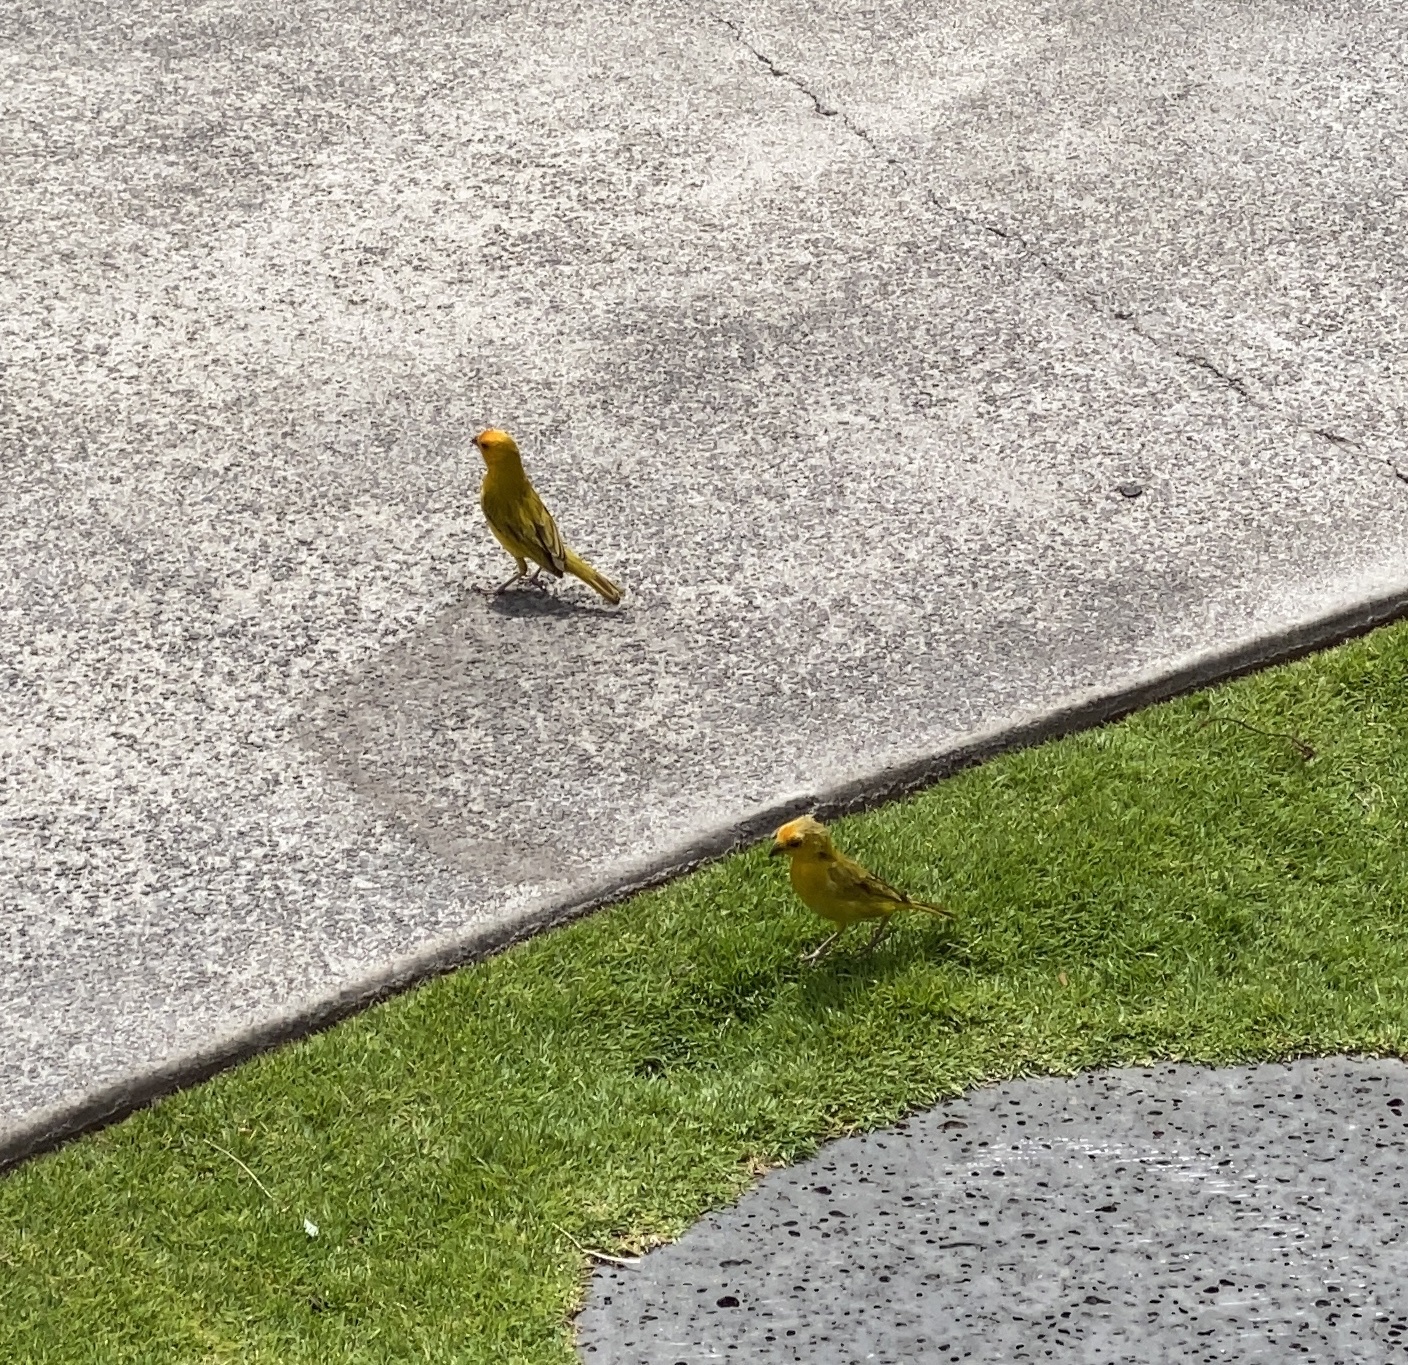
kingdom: Animalia
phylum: Chordata
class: Aves
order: Passeriformes
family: Thraupidae
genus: Sicalis
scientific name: Sicalis flaveola
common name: Saffron finch
